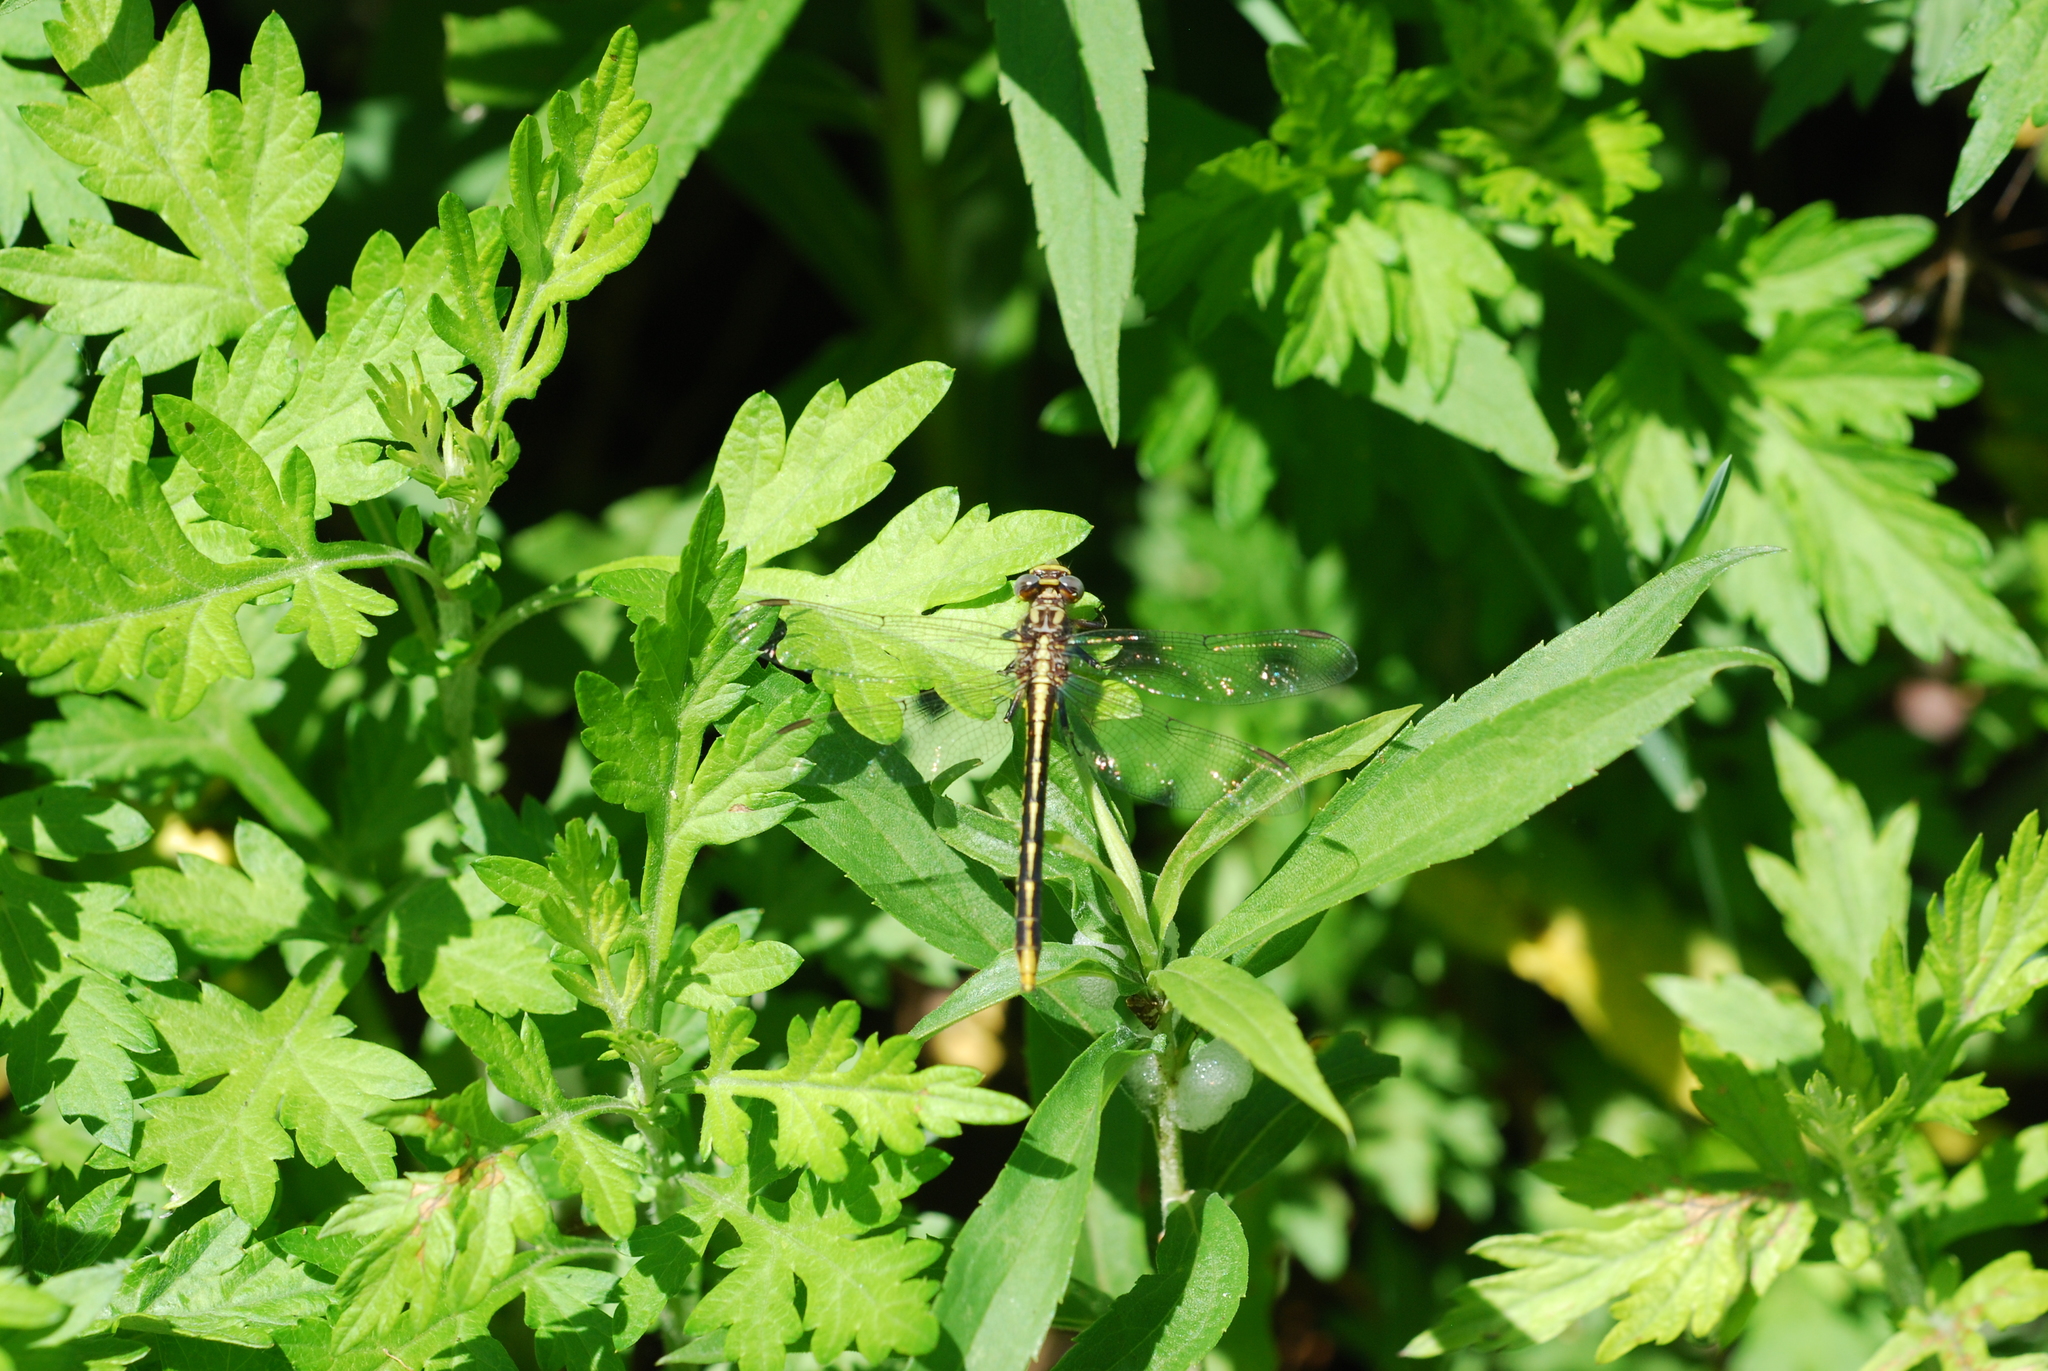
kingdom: Animalia
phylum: Arthropoda
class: Insecta
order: Odonata
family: Gomphidae
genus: Phanogomphus
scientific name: Phanogomphus exilis
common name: Lancet clubtail
